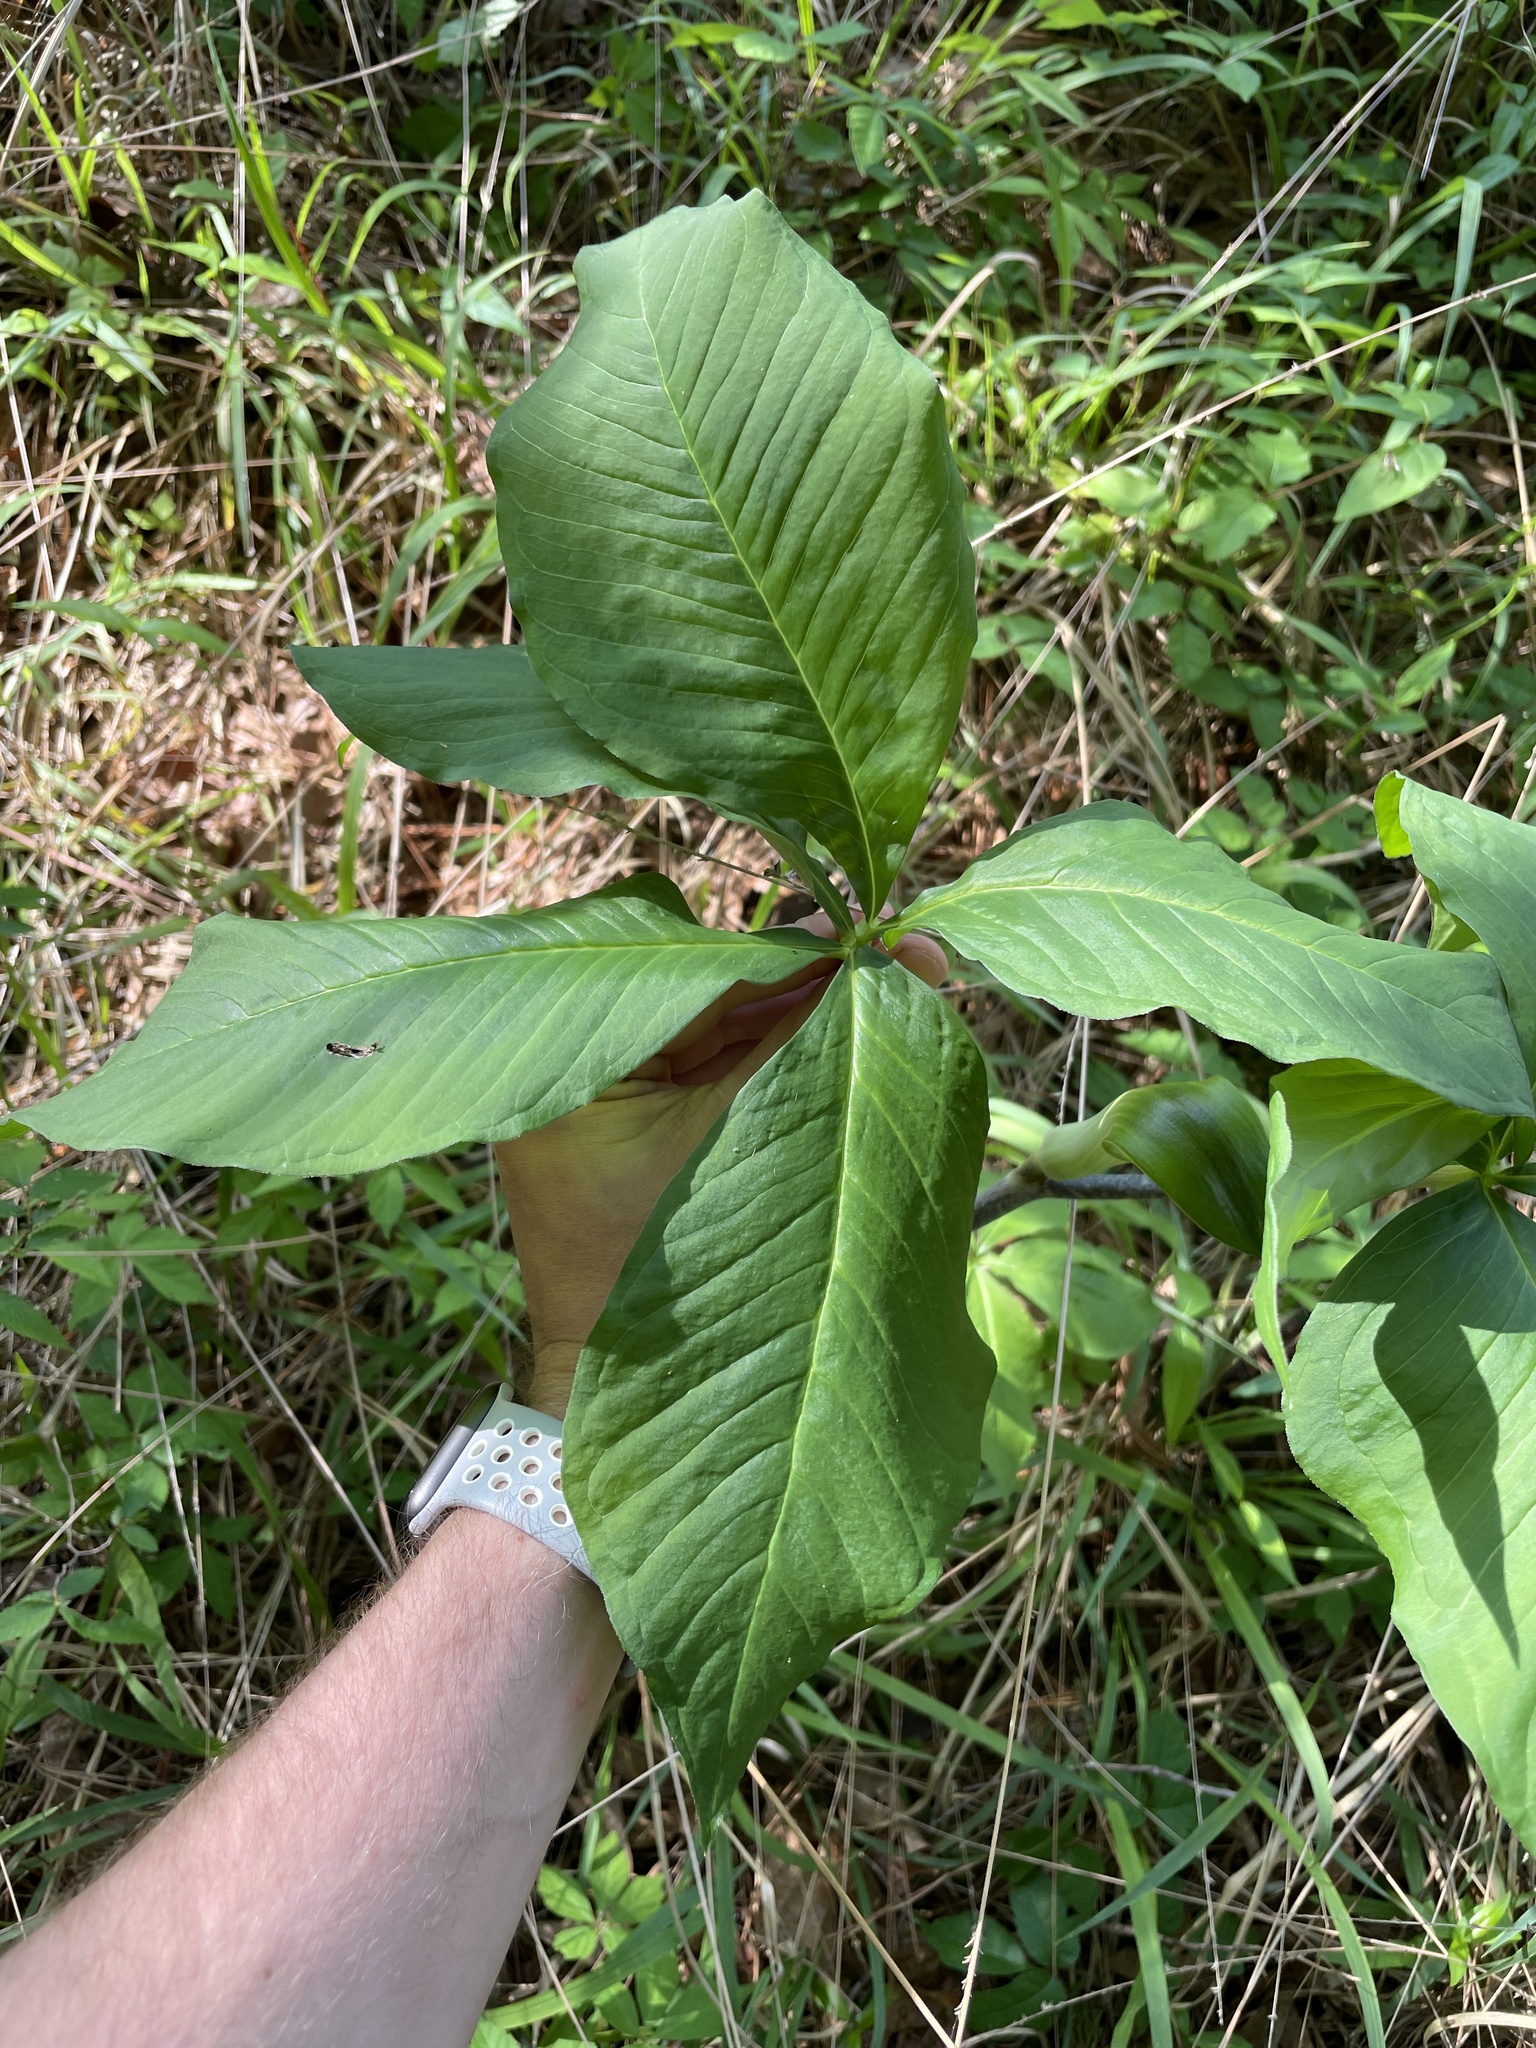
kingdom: Plantae
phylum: Tracheophyta
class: Liliopsida
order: Alismatales
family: Araceae
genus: Arisaema
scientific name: Arisaema quinatum
